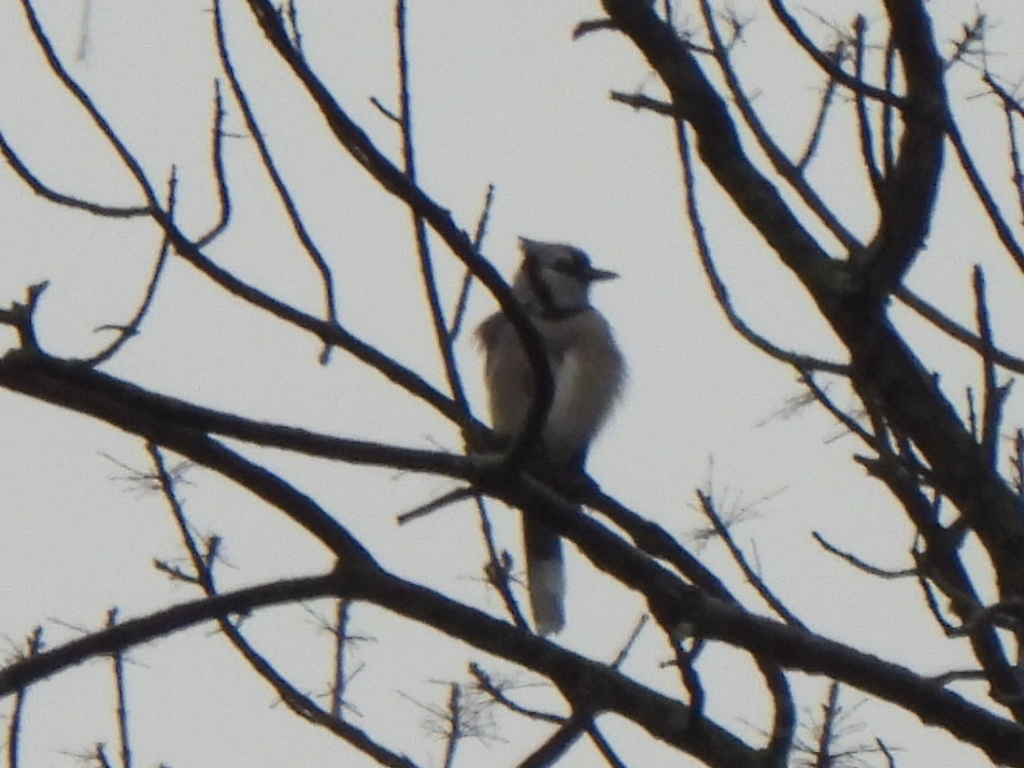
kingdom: Animalia
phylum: Chordata
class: Aves
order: Passeriformes
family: Corvidae
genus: Cyanocitta
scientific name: Cyanocitta cristata
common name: Blue jay
